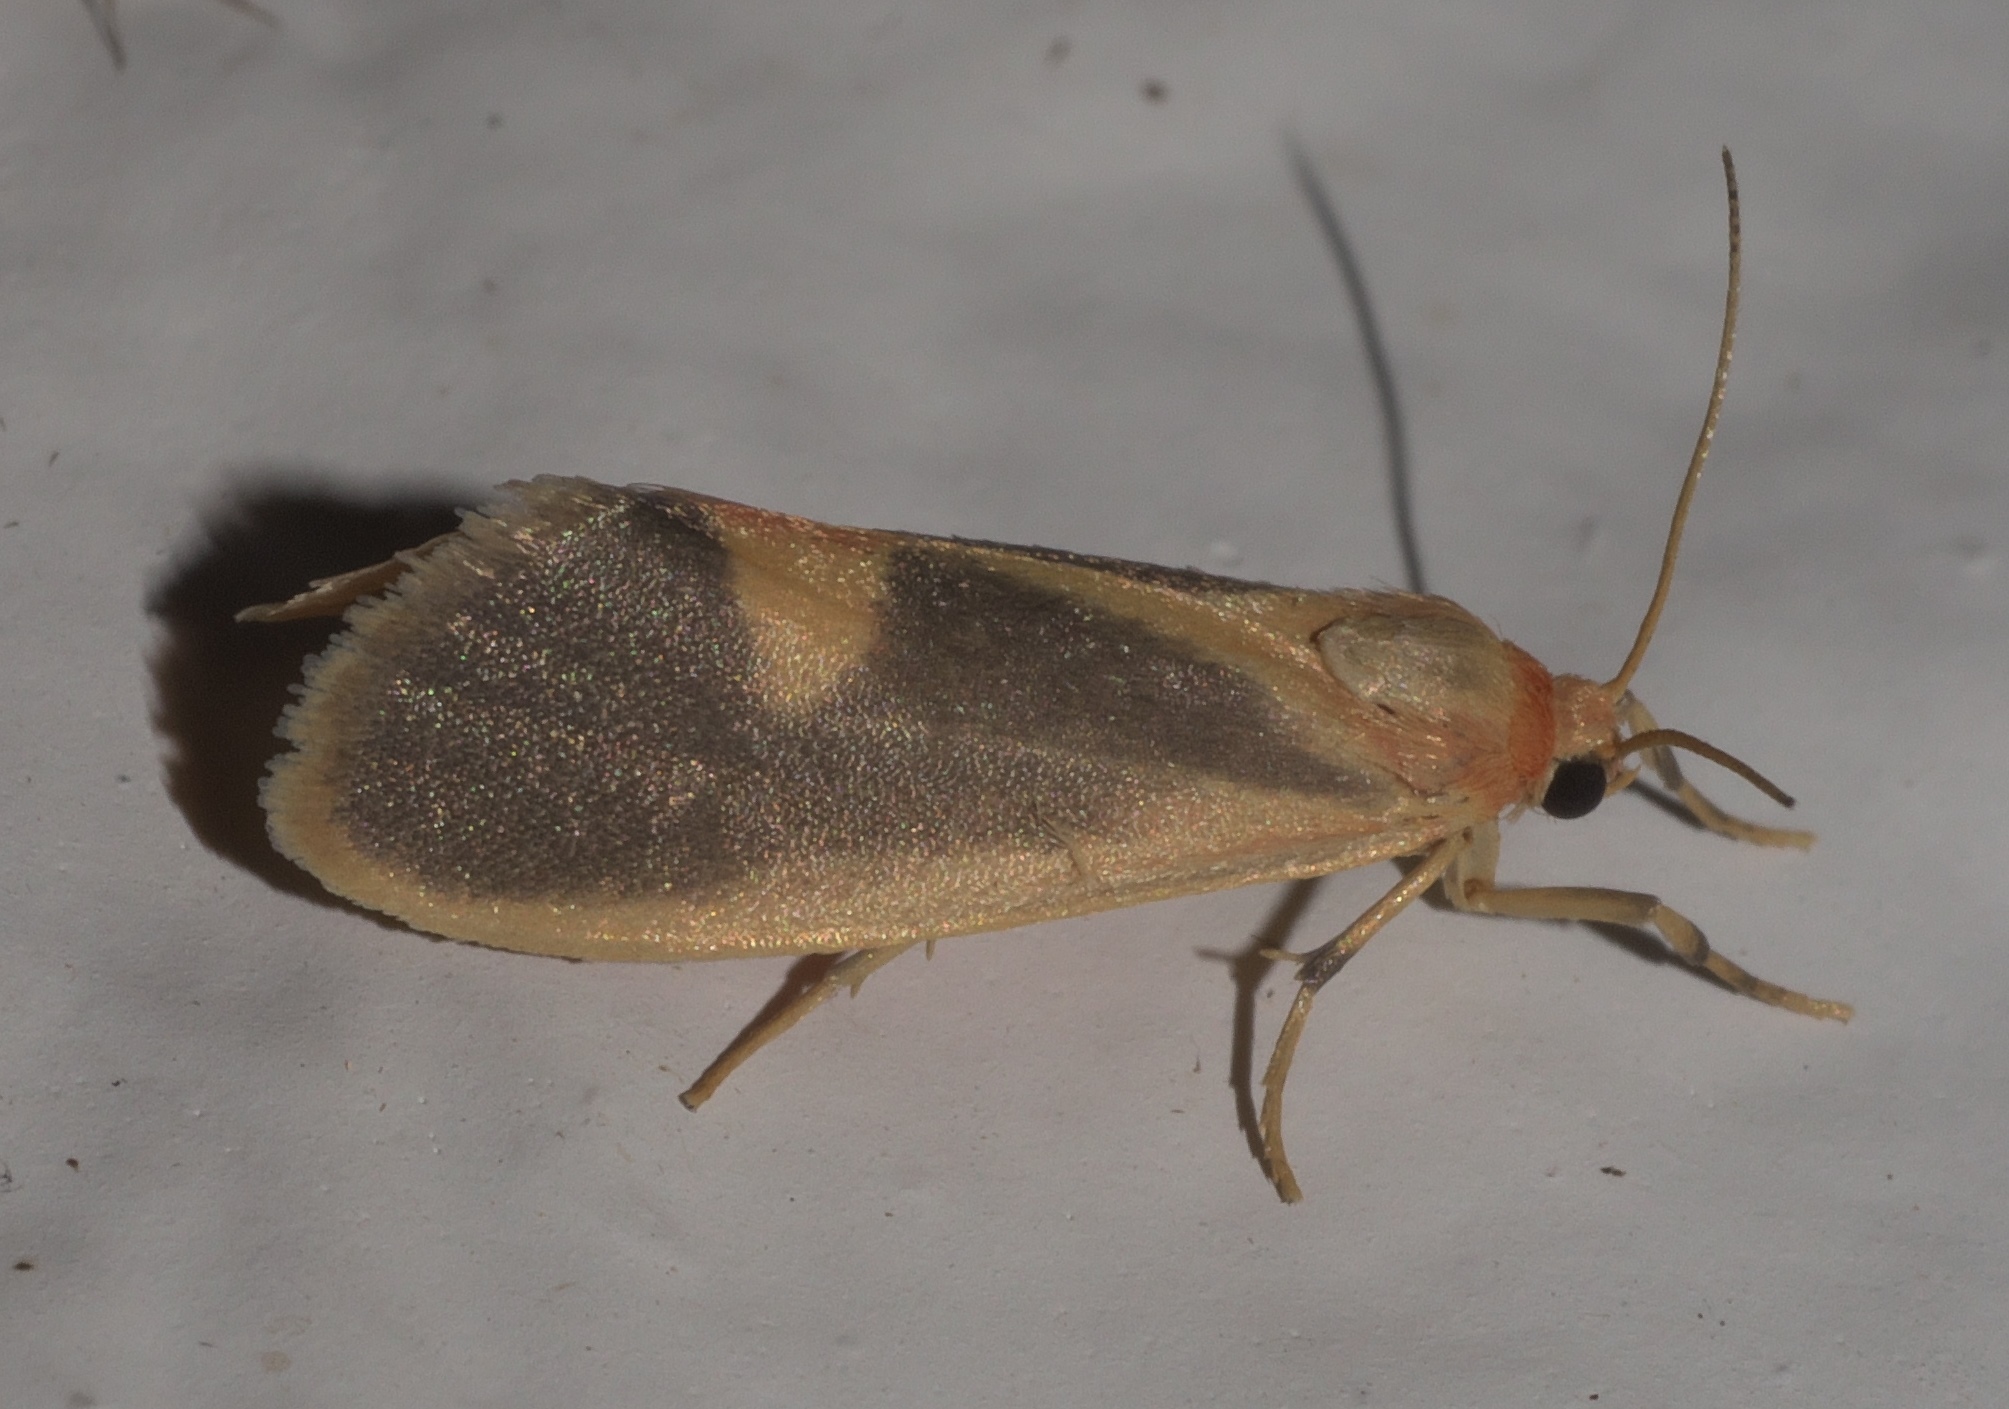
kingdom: Animalia
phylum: Arthropoda
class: Insecta
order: Lepidoptera
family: Erebidae
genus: Cisthene
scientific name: Cisthene plumbea
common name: Lead colored lichen moth
